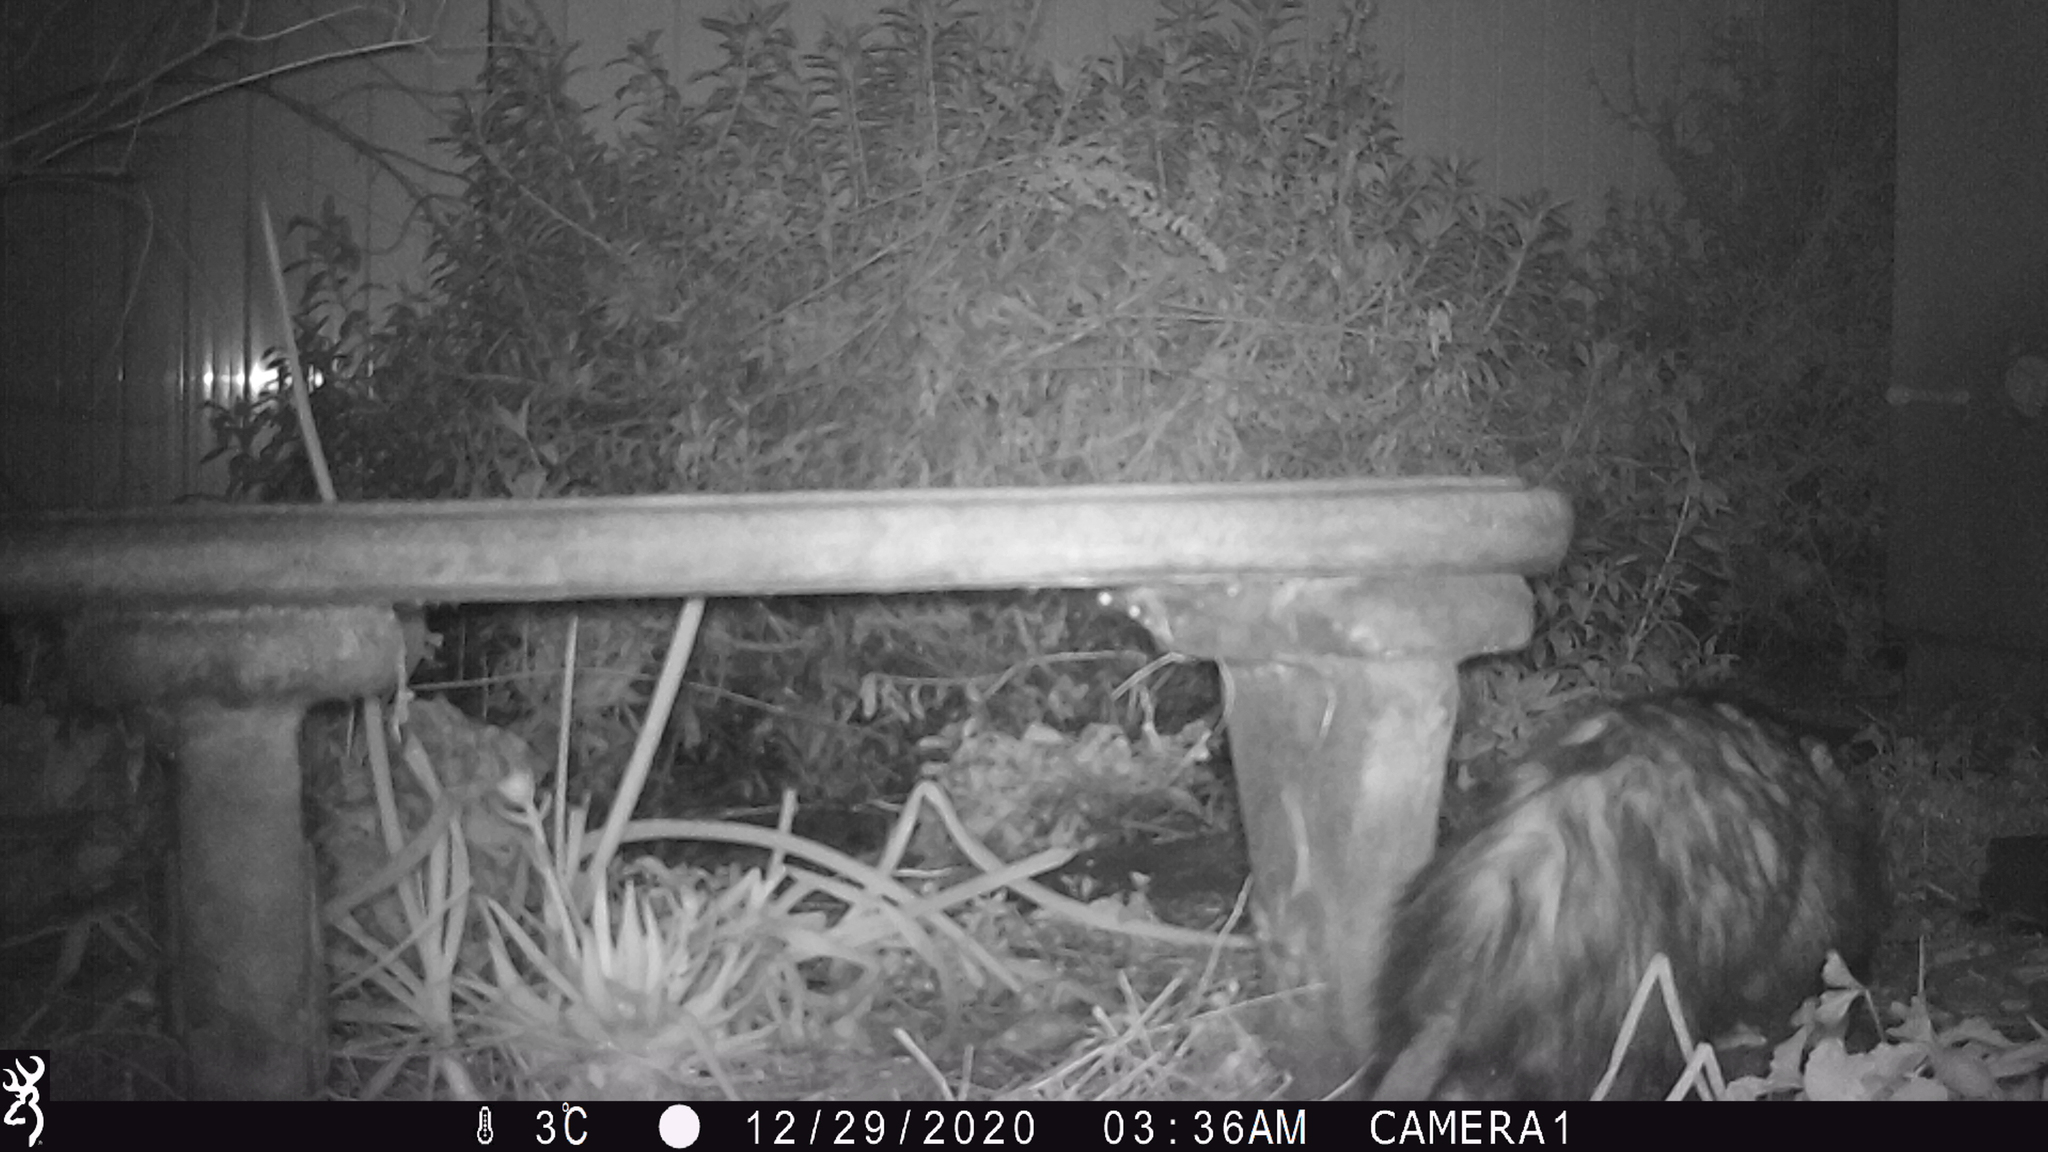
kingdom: Animalia
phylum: Chordata
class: Mammalia
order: Didelphimorphia
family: Didelphidae
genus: Didelphis
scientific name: Didelphis virginiana
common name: Virginia opossum
